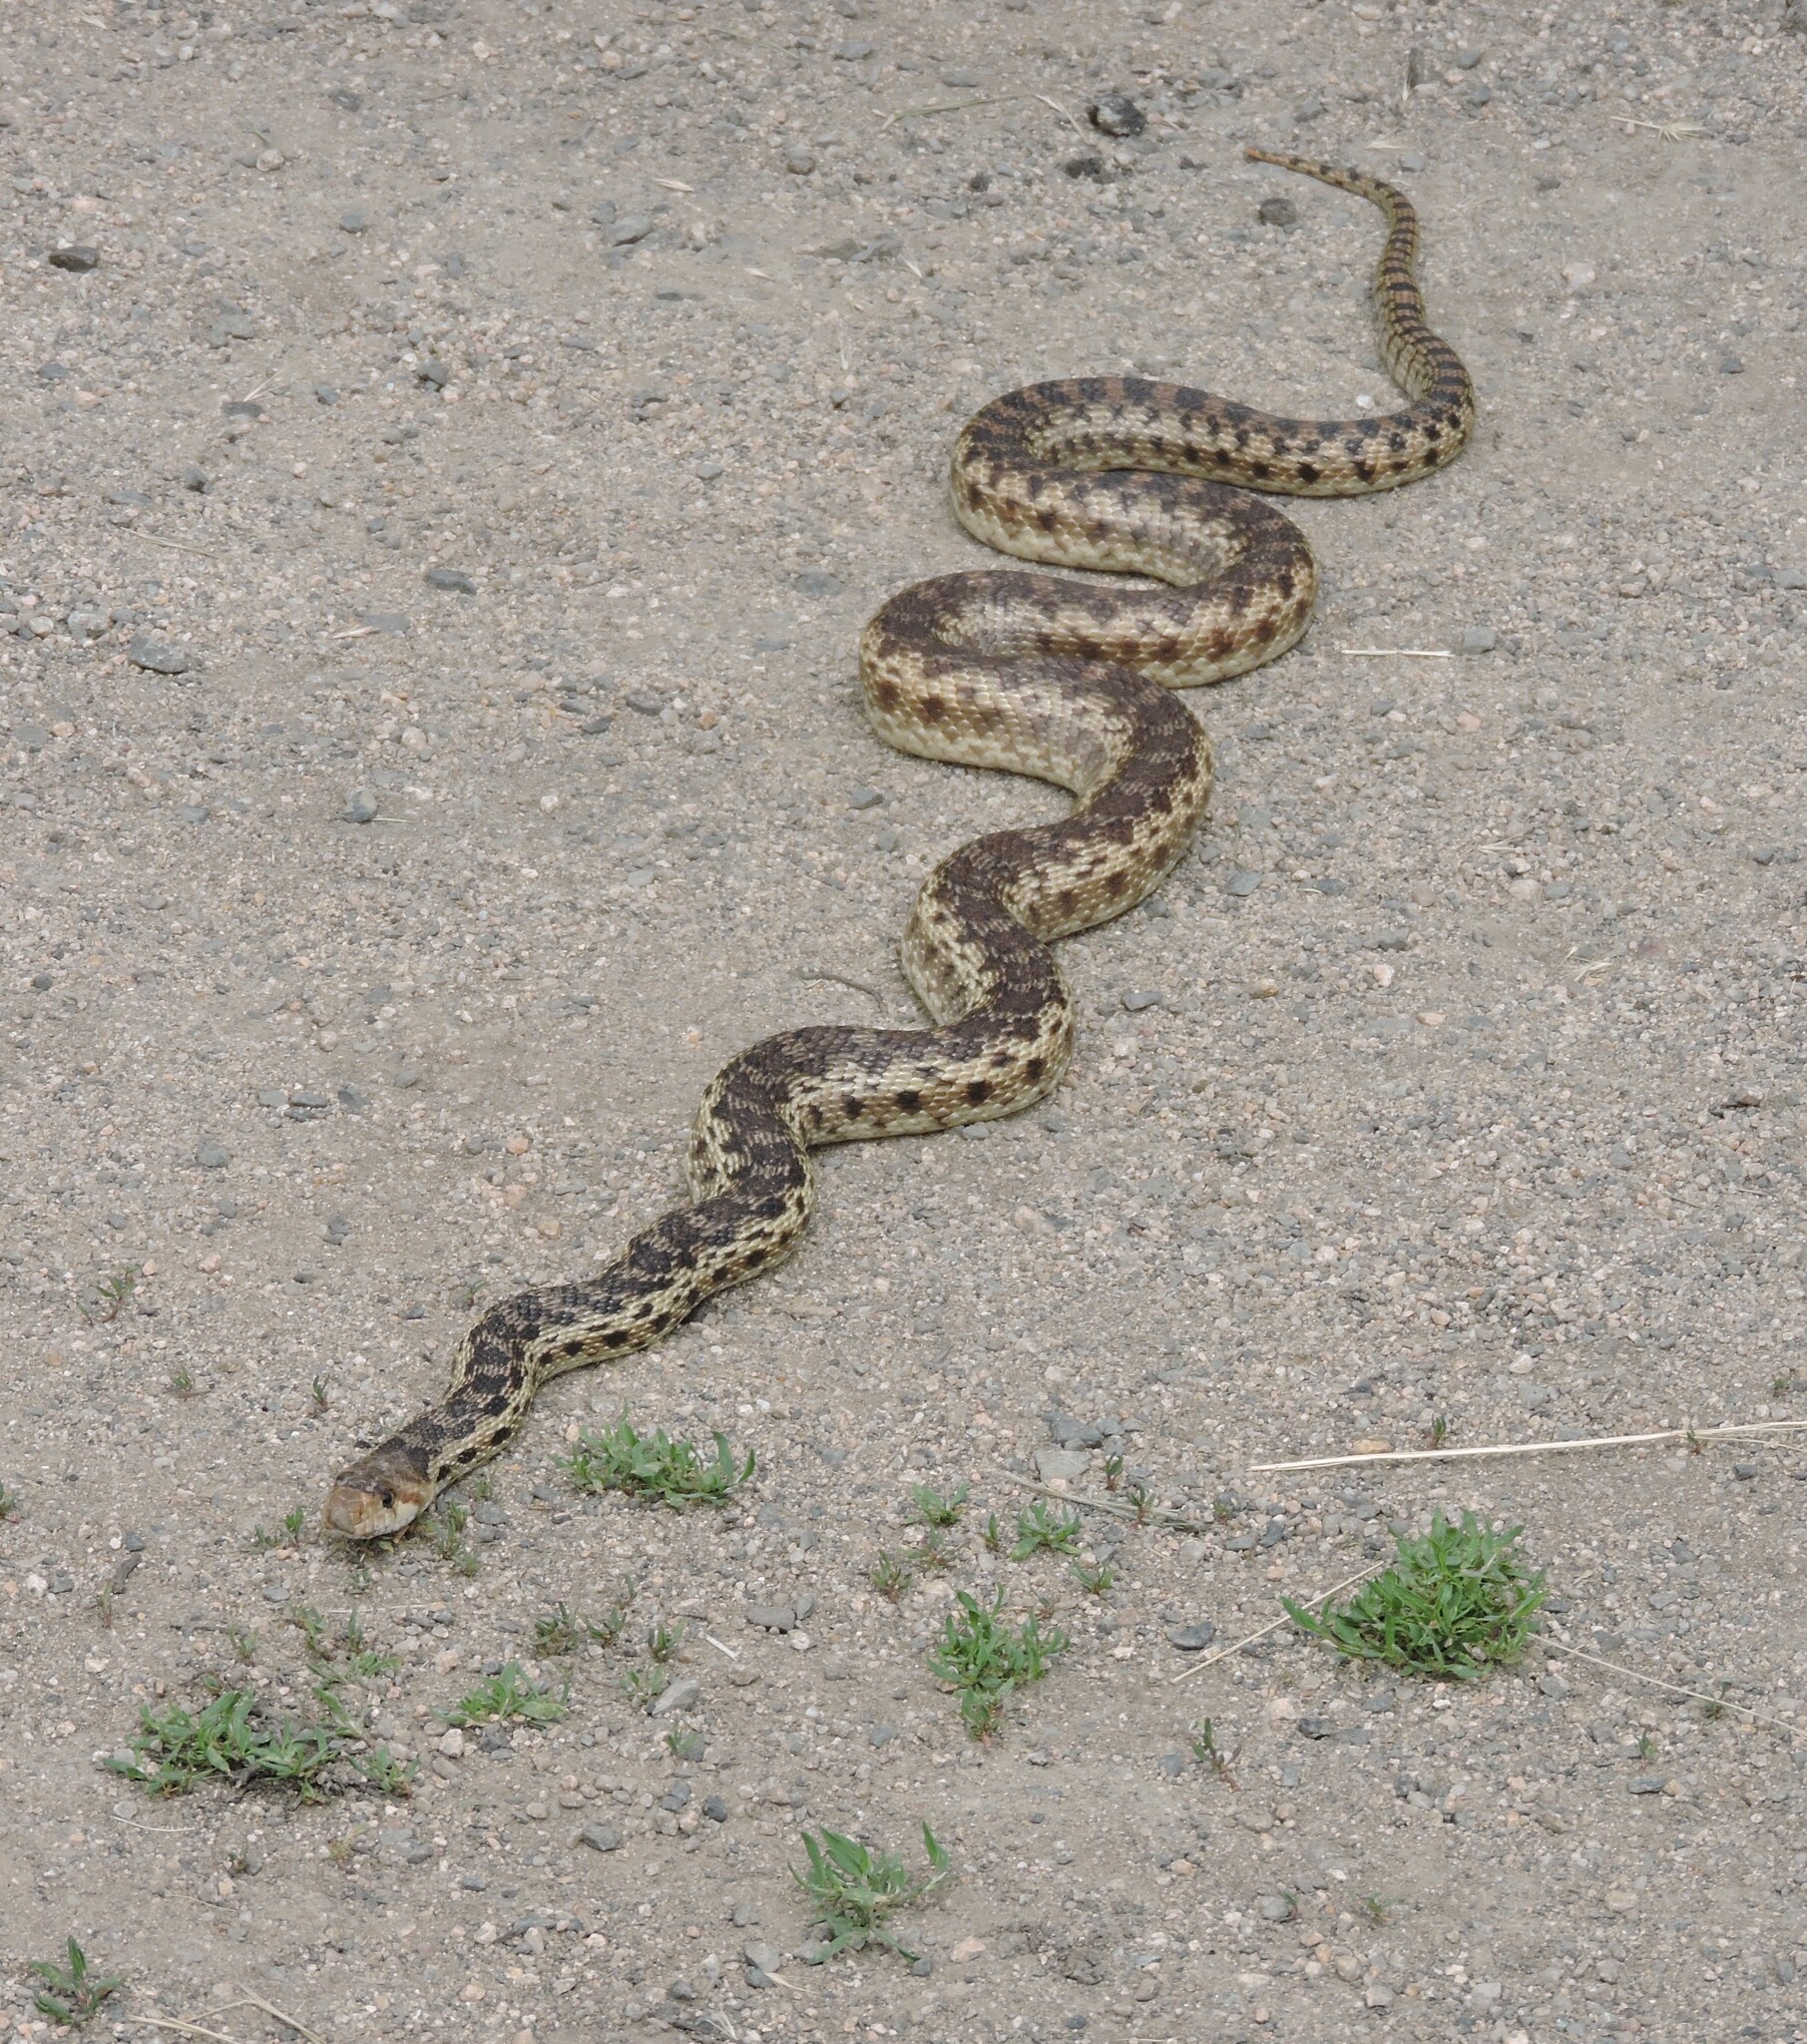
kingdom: Animalia
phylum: Chordata
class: Squamata
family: Colubridae
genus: Pituophis
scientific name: Pituophis catenifer
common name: Gopher snake
